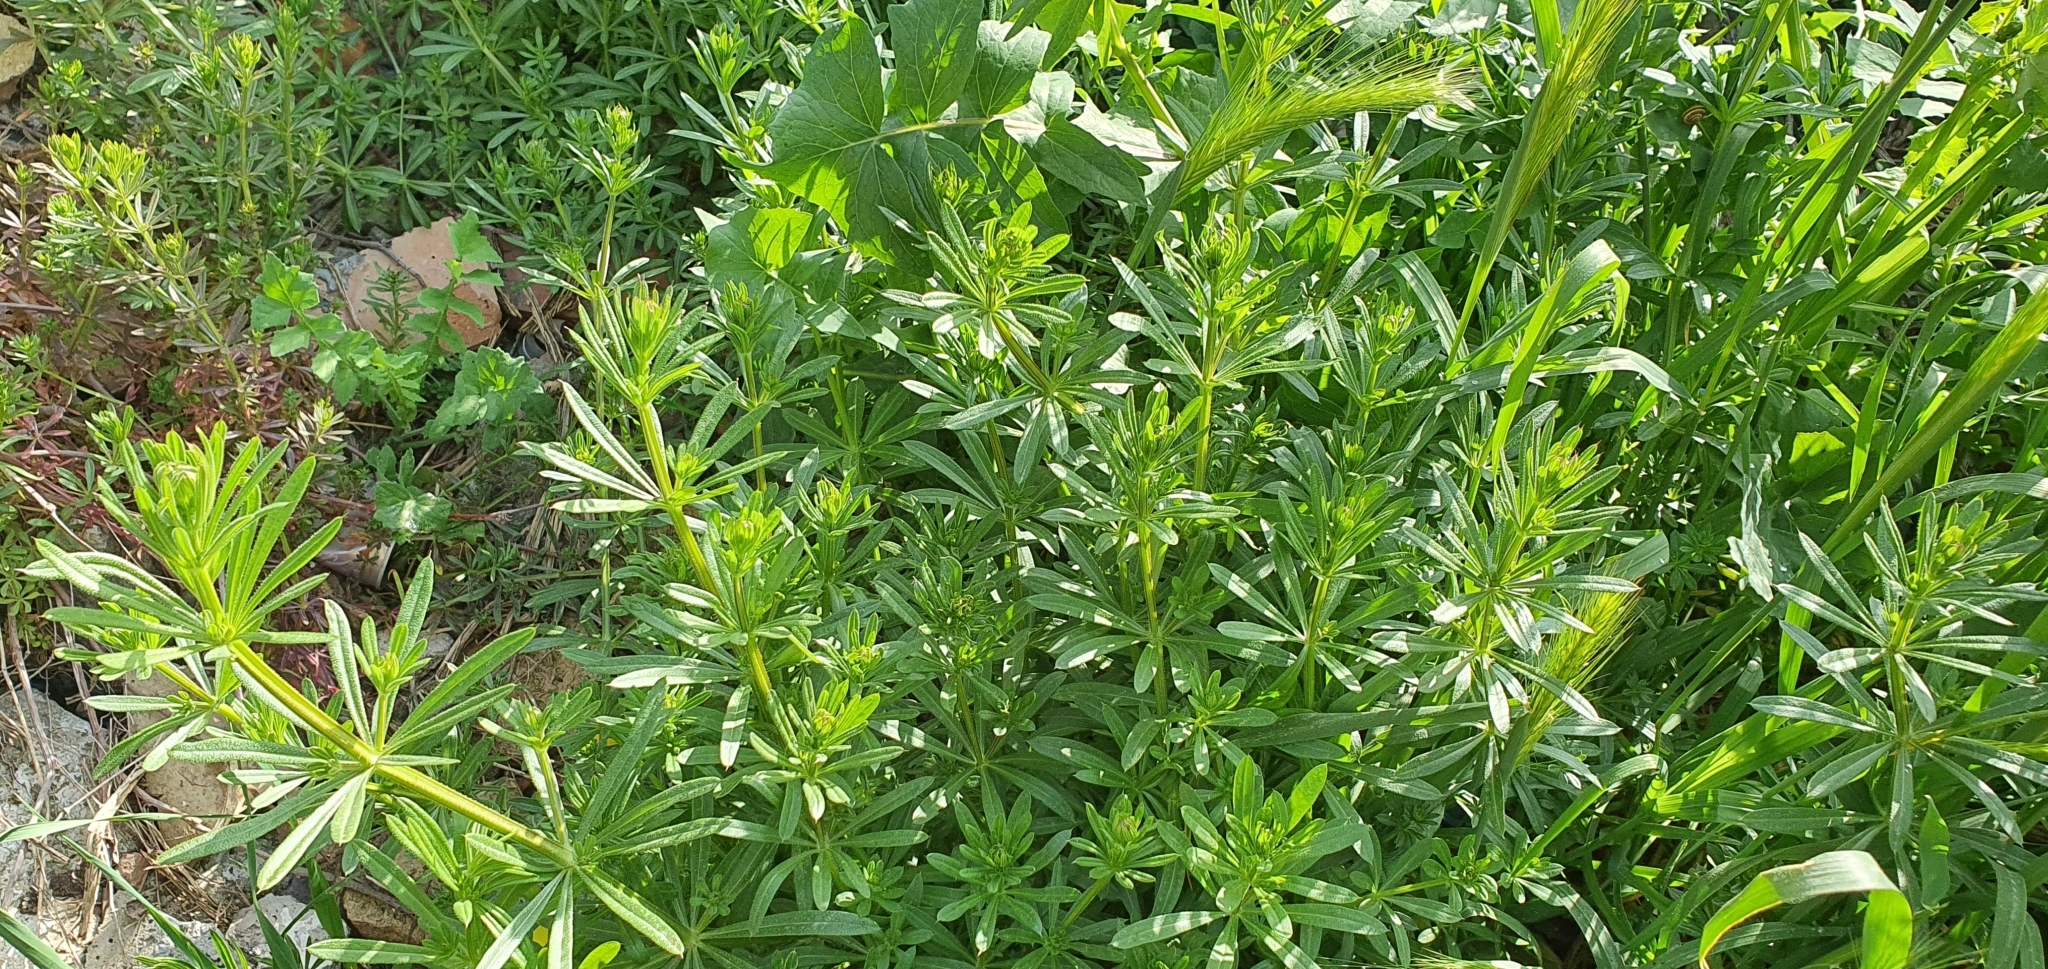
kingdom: Plantae
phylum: Tracheophyta
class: Magnoliopsida
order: Gentianales
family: Rubiaceae
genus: Galium
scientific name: Galium aparine
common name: Cleavers
